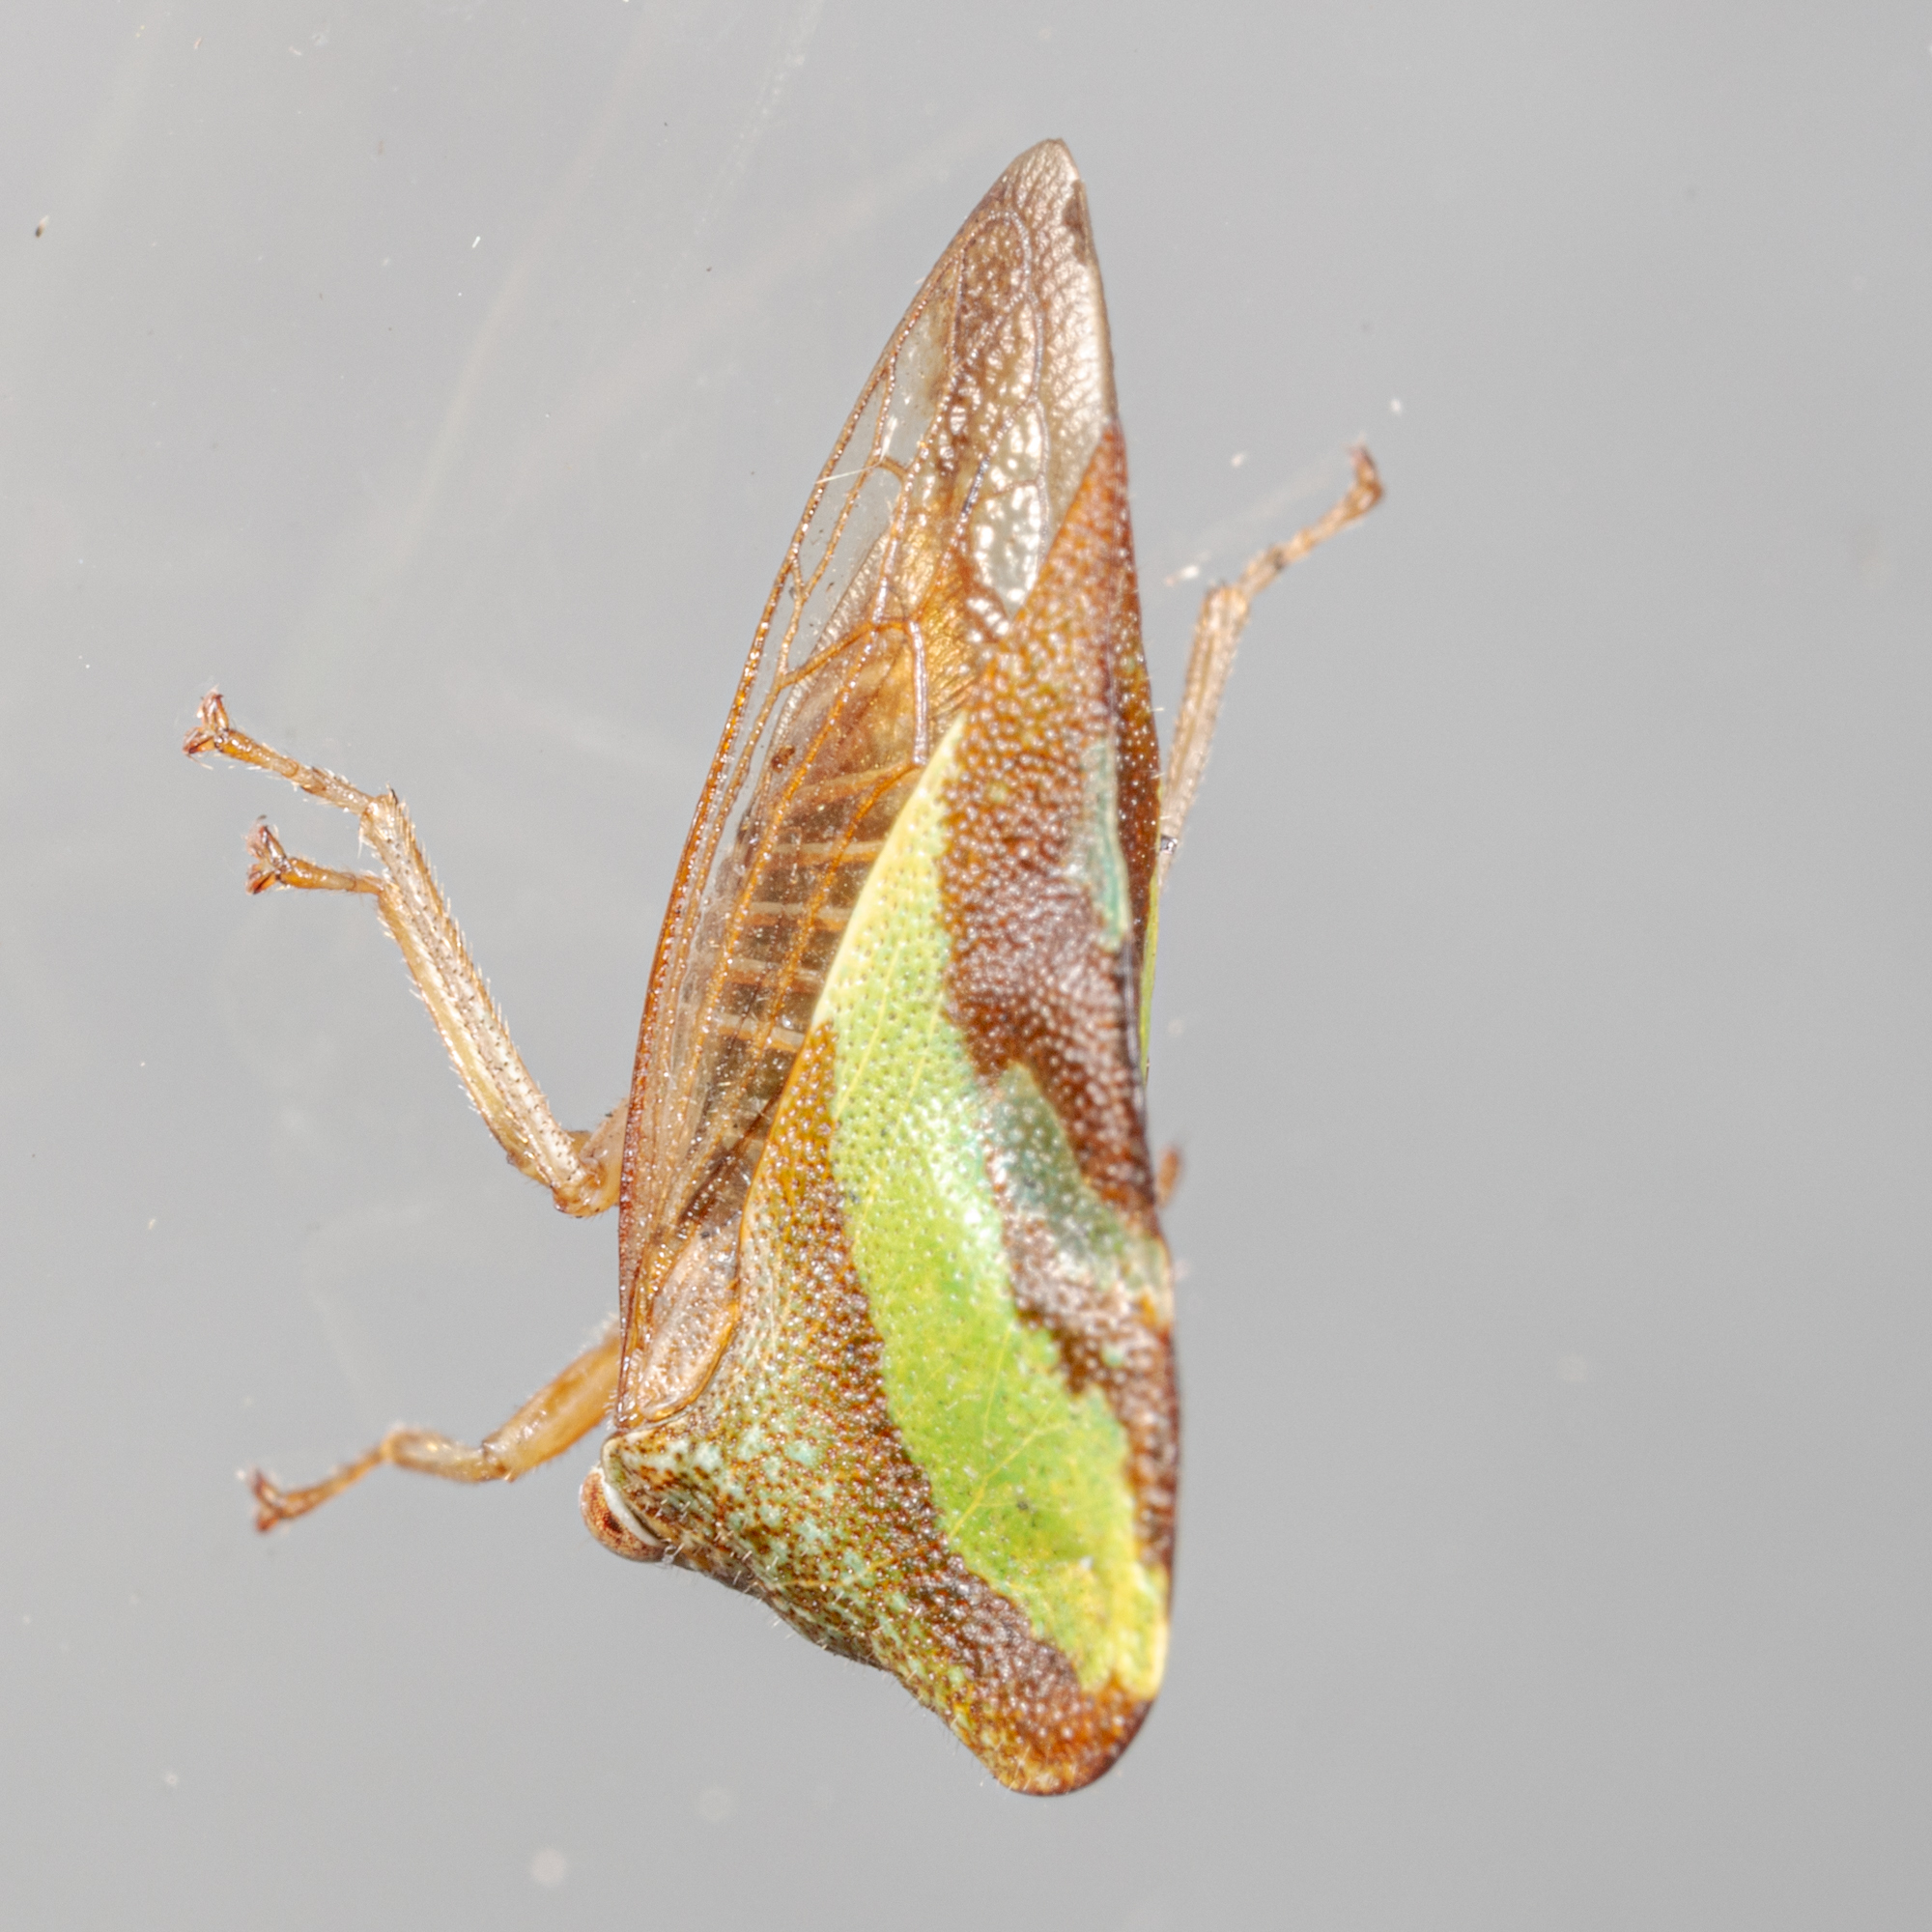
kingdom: Animalia
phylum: Arthropoda
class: Insecta
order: Hemiptera
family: Membracidae
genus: Smilia
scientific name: Smilia camelus
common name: Camel treehopper
